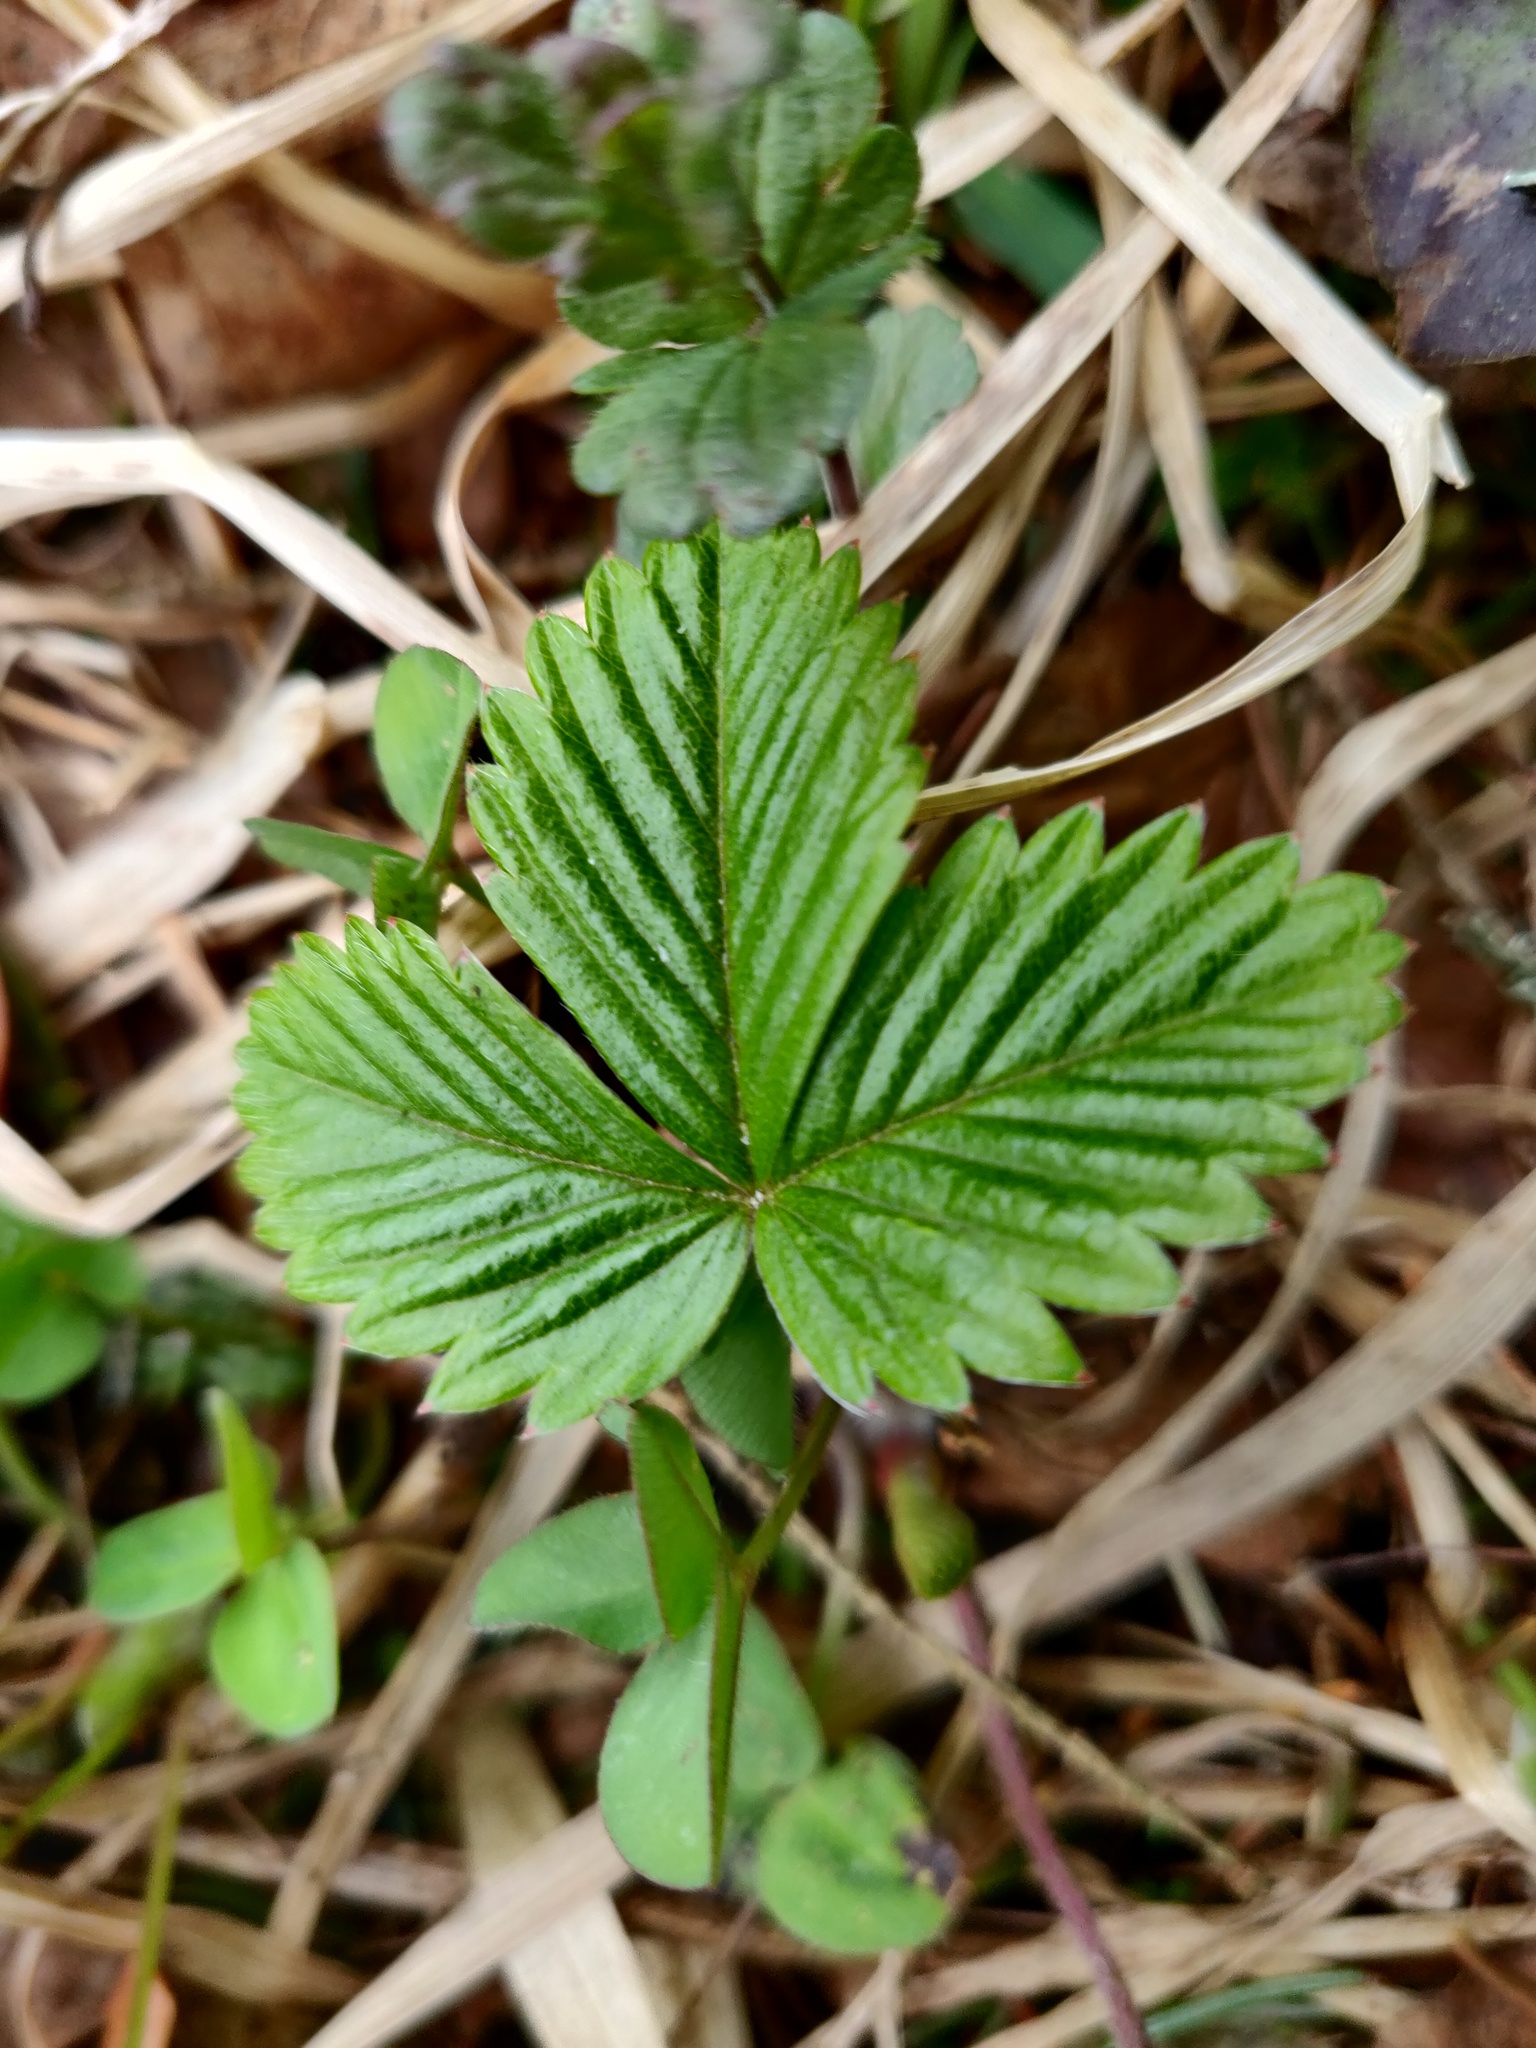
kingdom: Plantae
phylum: Tracheophyta
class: Magnoliopsida
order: Rosales
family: Rosaceae
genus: Fragaria
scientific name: Fragaria vesca
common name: Wild strawberry
